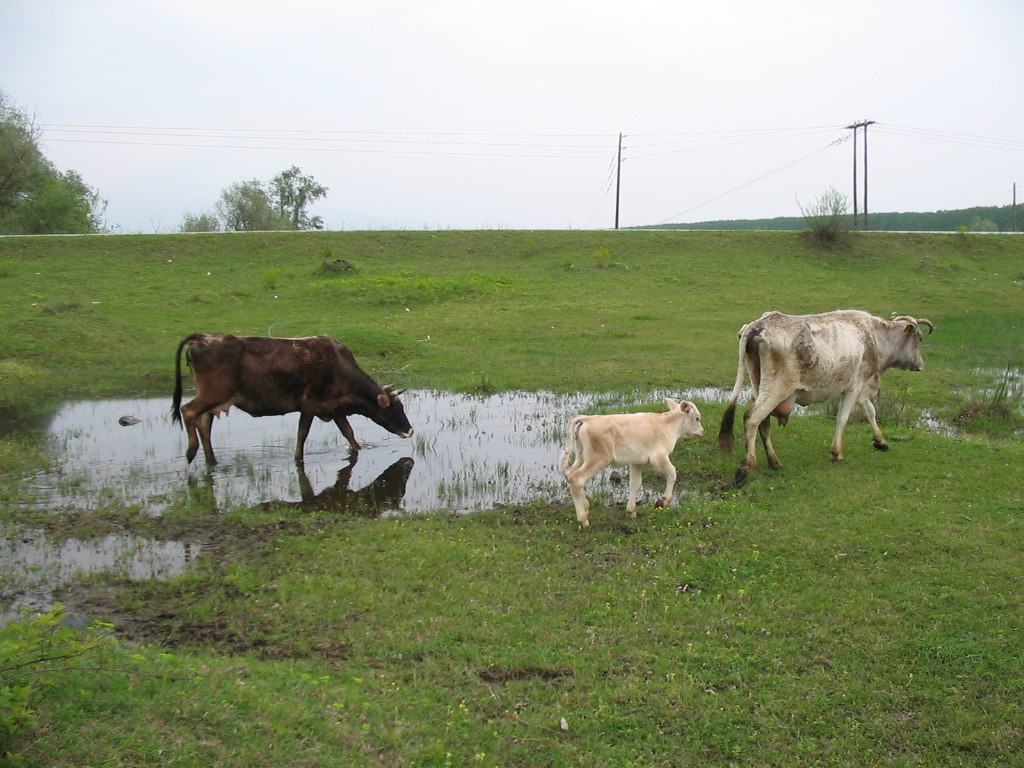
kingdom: Animalia
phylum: Chordata
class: Mammalia
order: Artiodactyla
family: Bovidae
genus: Bos
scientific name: Bos taurus
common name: Domesticated cattle
